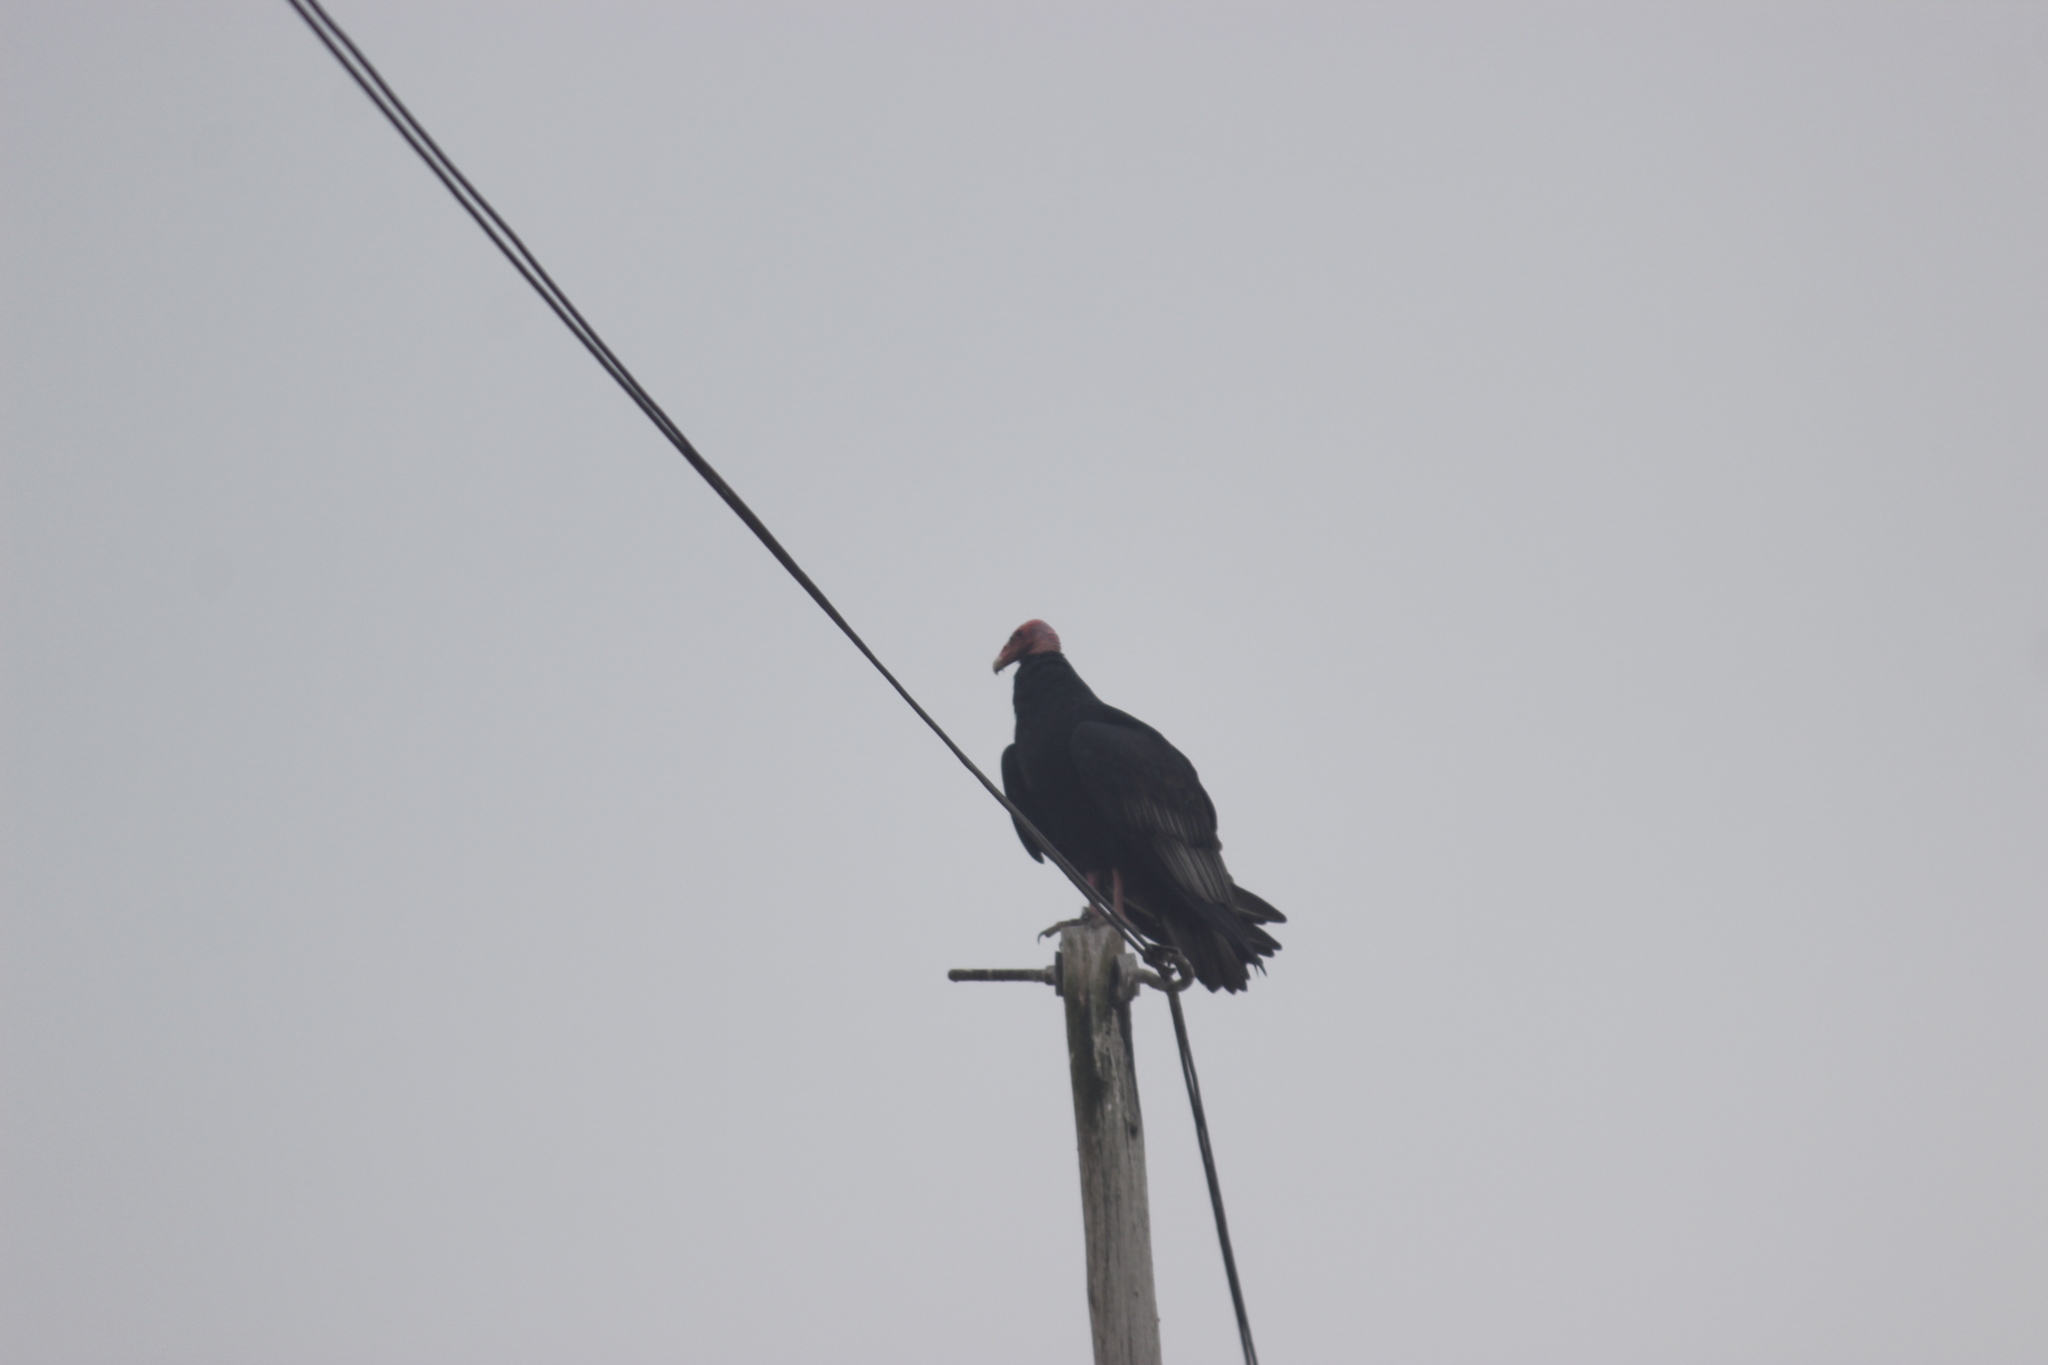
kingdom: Animalia
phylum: Chordata
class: Aves
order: Accipitriformes
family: Cathartidae
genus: Cathartes
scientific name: Cathartes aura
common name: Turkey vulture
